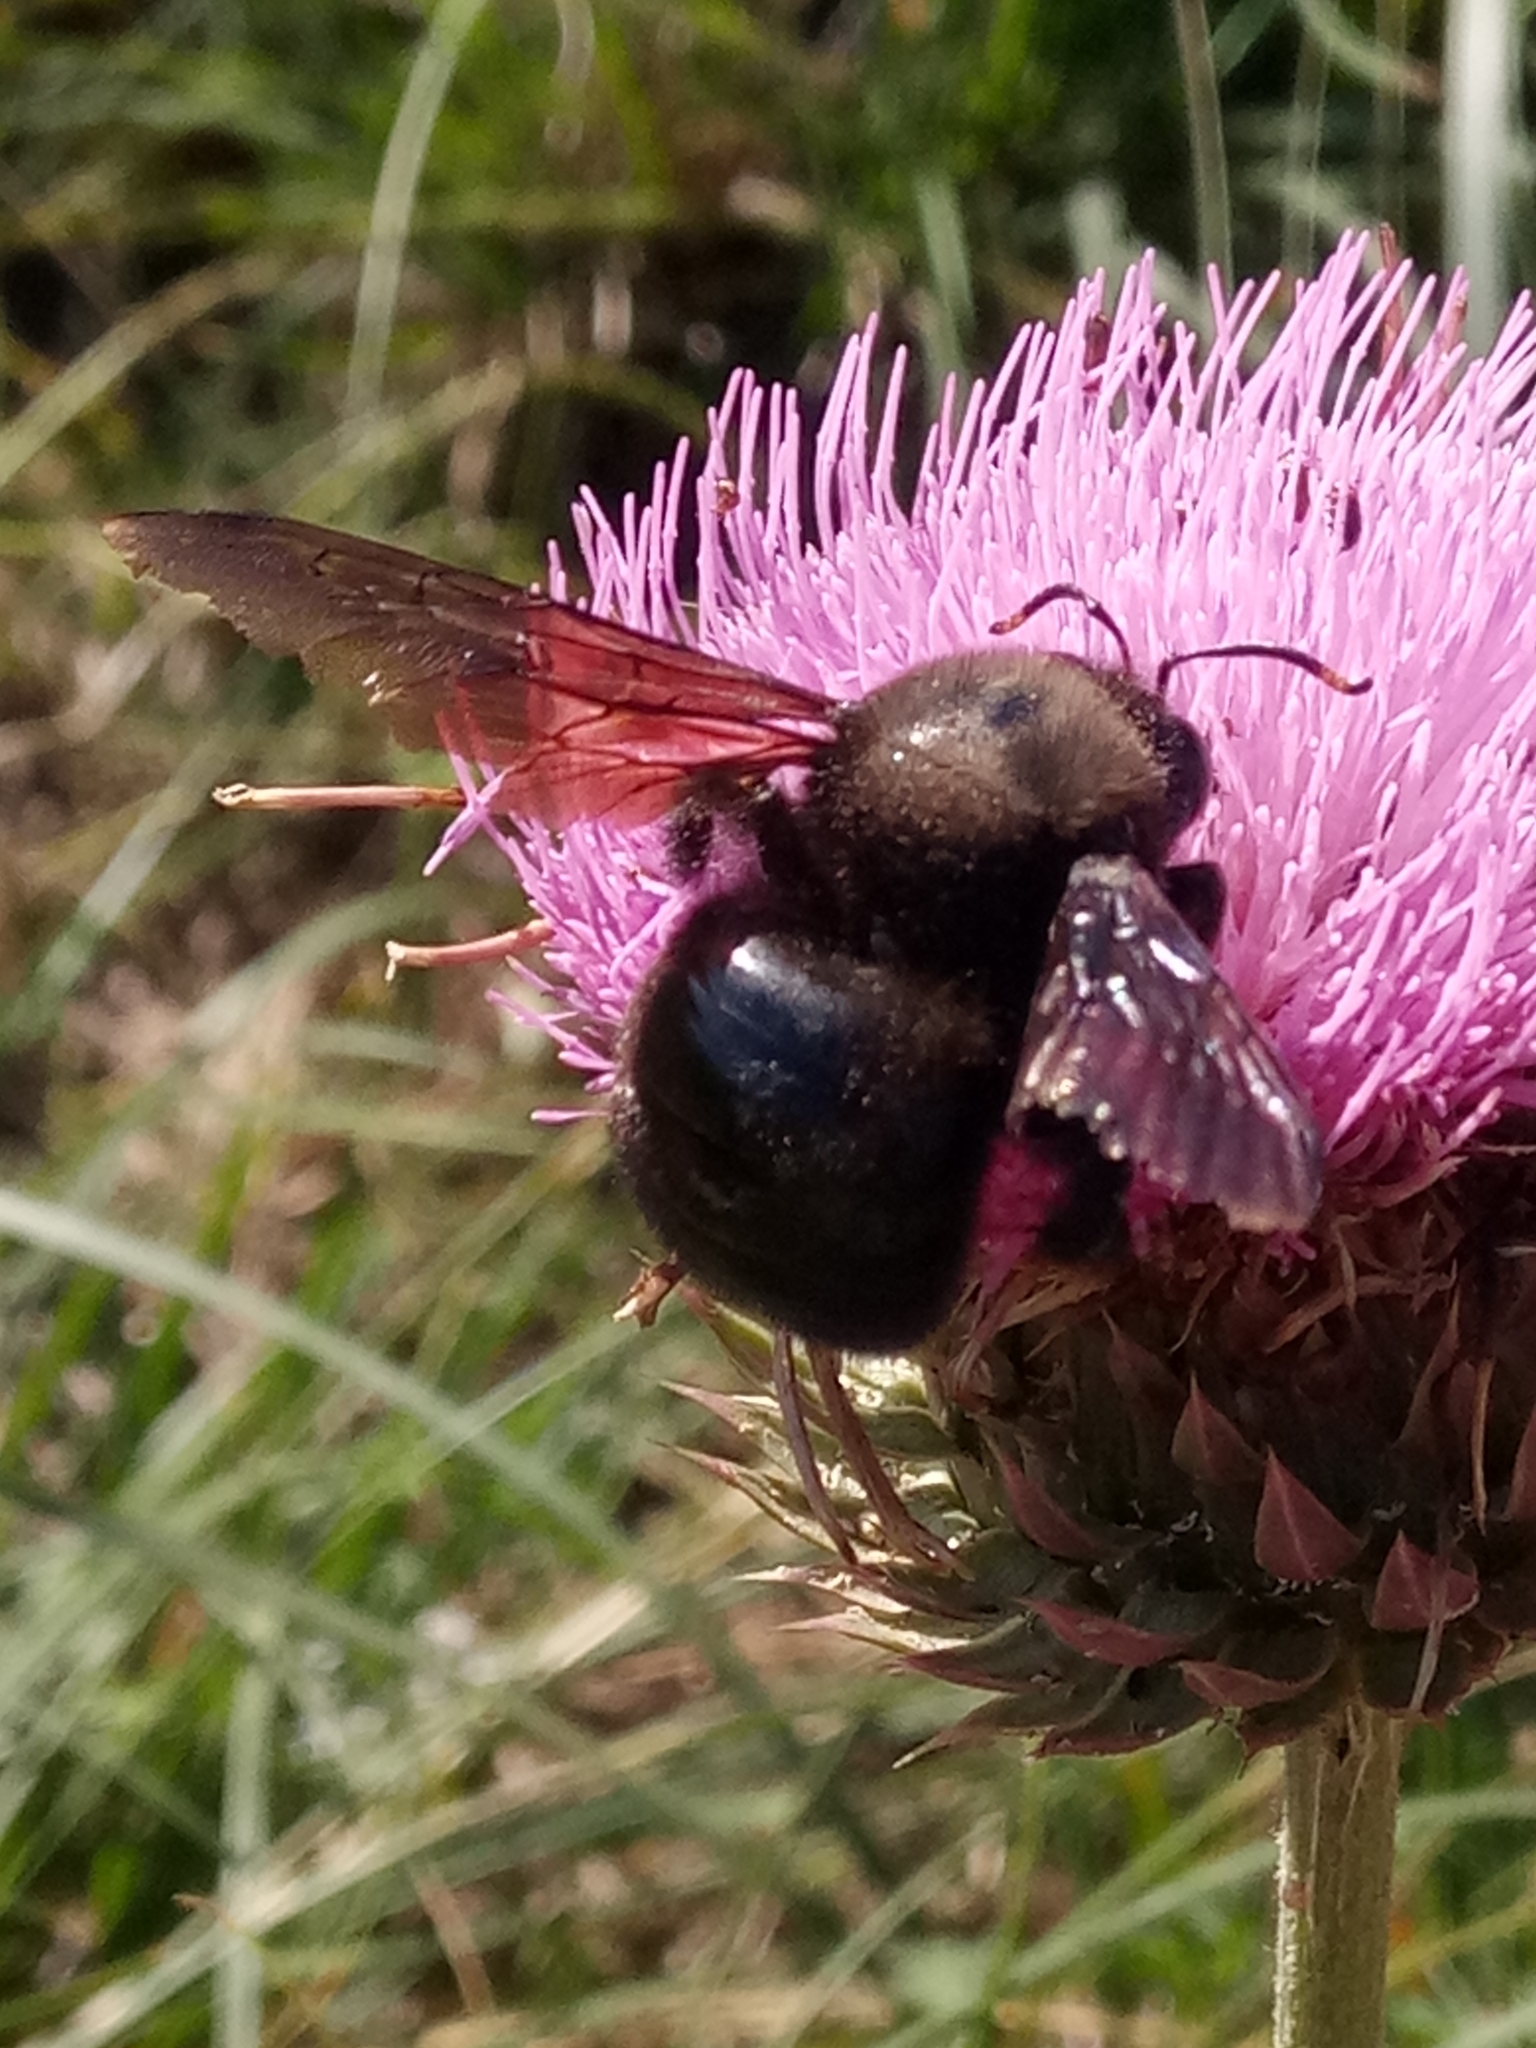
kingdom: Animalia
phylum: Arthropoda
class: Insecta
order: Hymenoptera
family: Apidae
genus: Xylocopa
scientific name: Xylocopa violacea
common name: Violet carpenter bee
